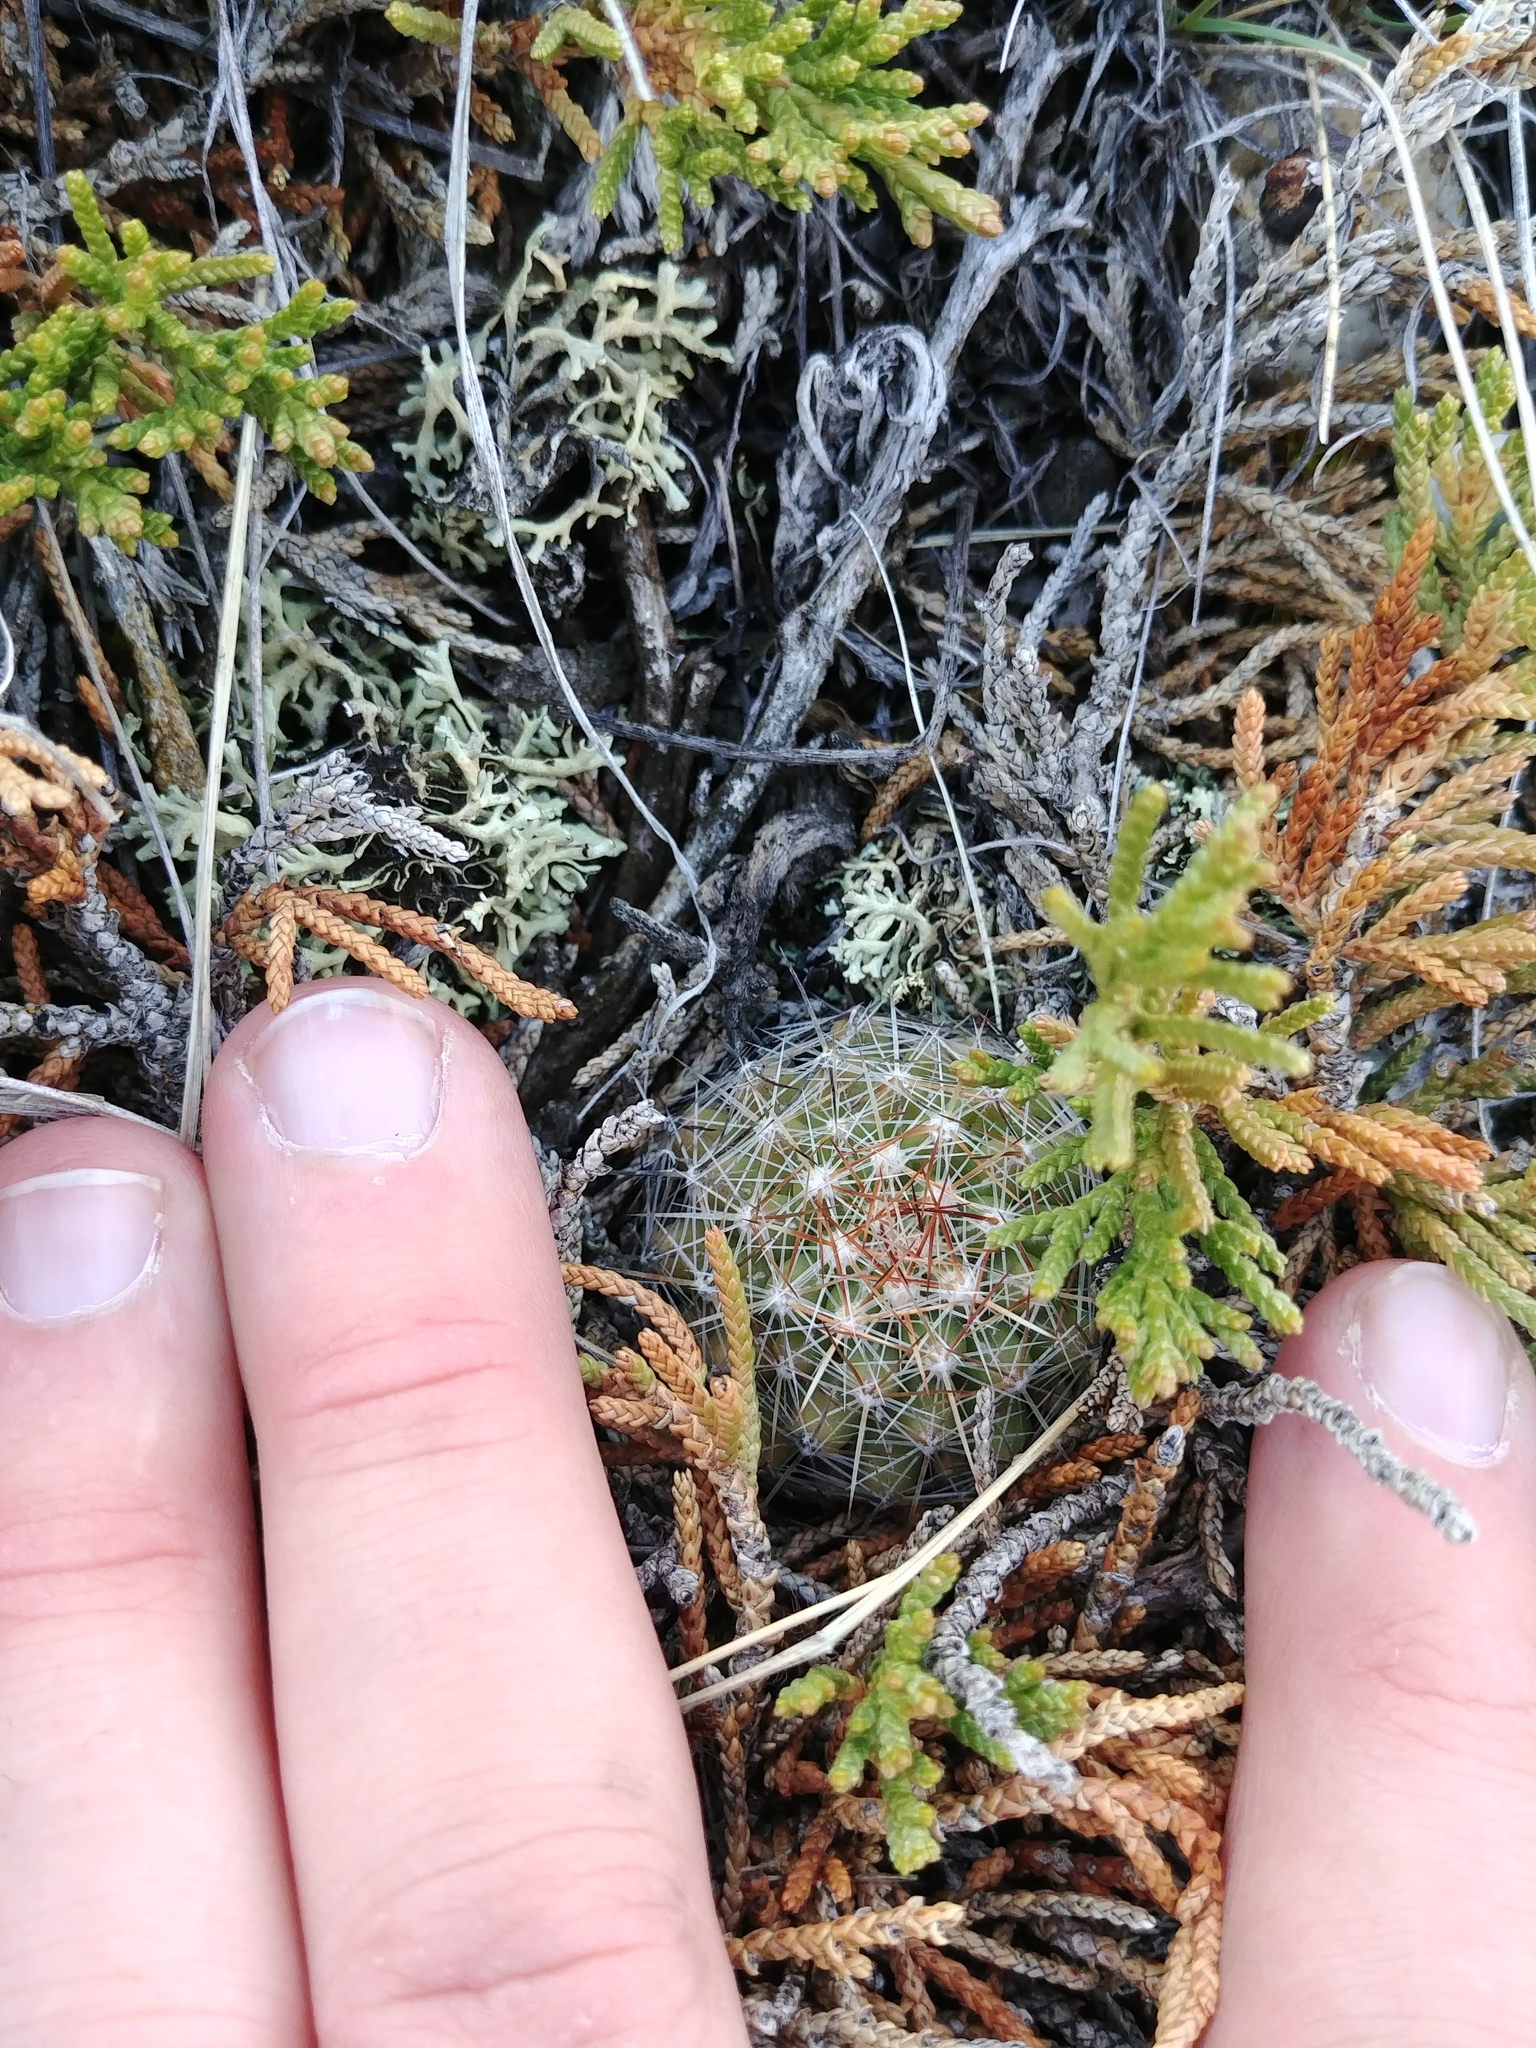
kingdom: Plantae
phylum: Tracheophyta
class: Magnoliopsida
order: Caryophyllales
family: Cactaceae
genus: Pelecyphora
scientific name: Pelecyphora vivipara
